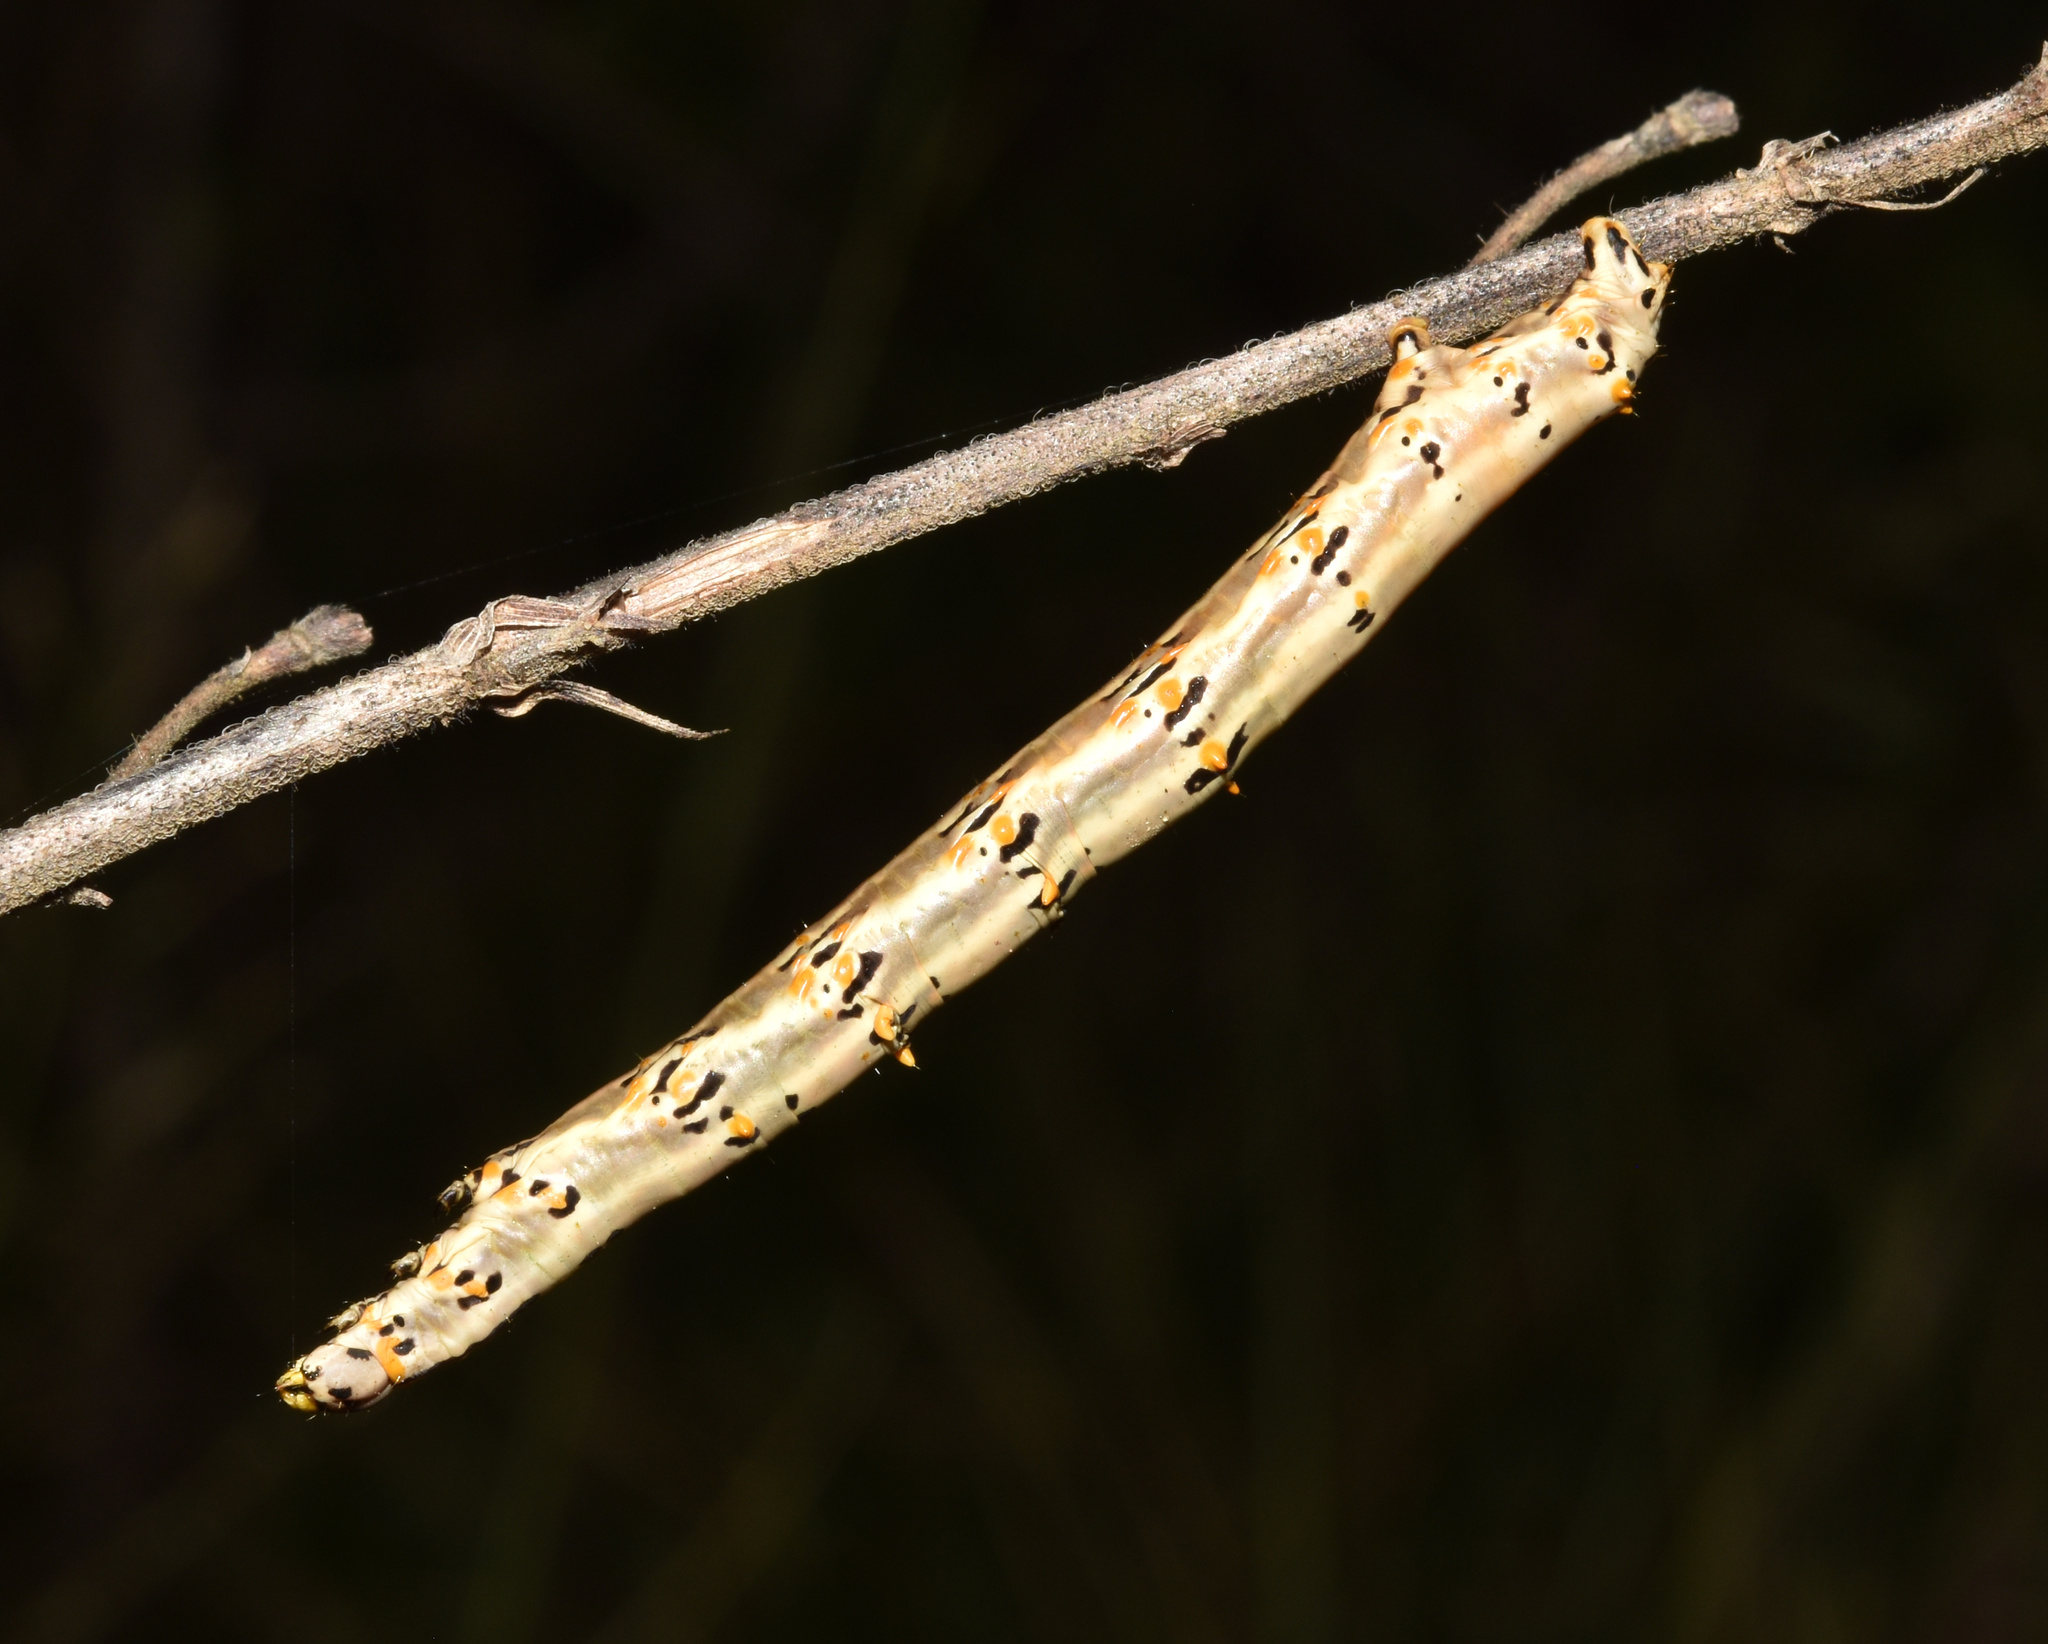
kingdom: Animalia
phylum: Arthropoda
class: Insecta
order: Lepidoptera
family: Geometridae
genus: Coenina
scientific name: Coenina poecilaria
